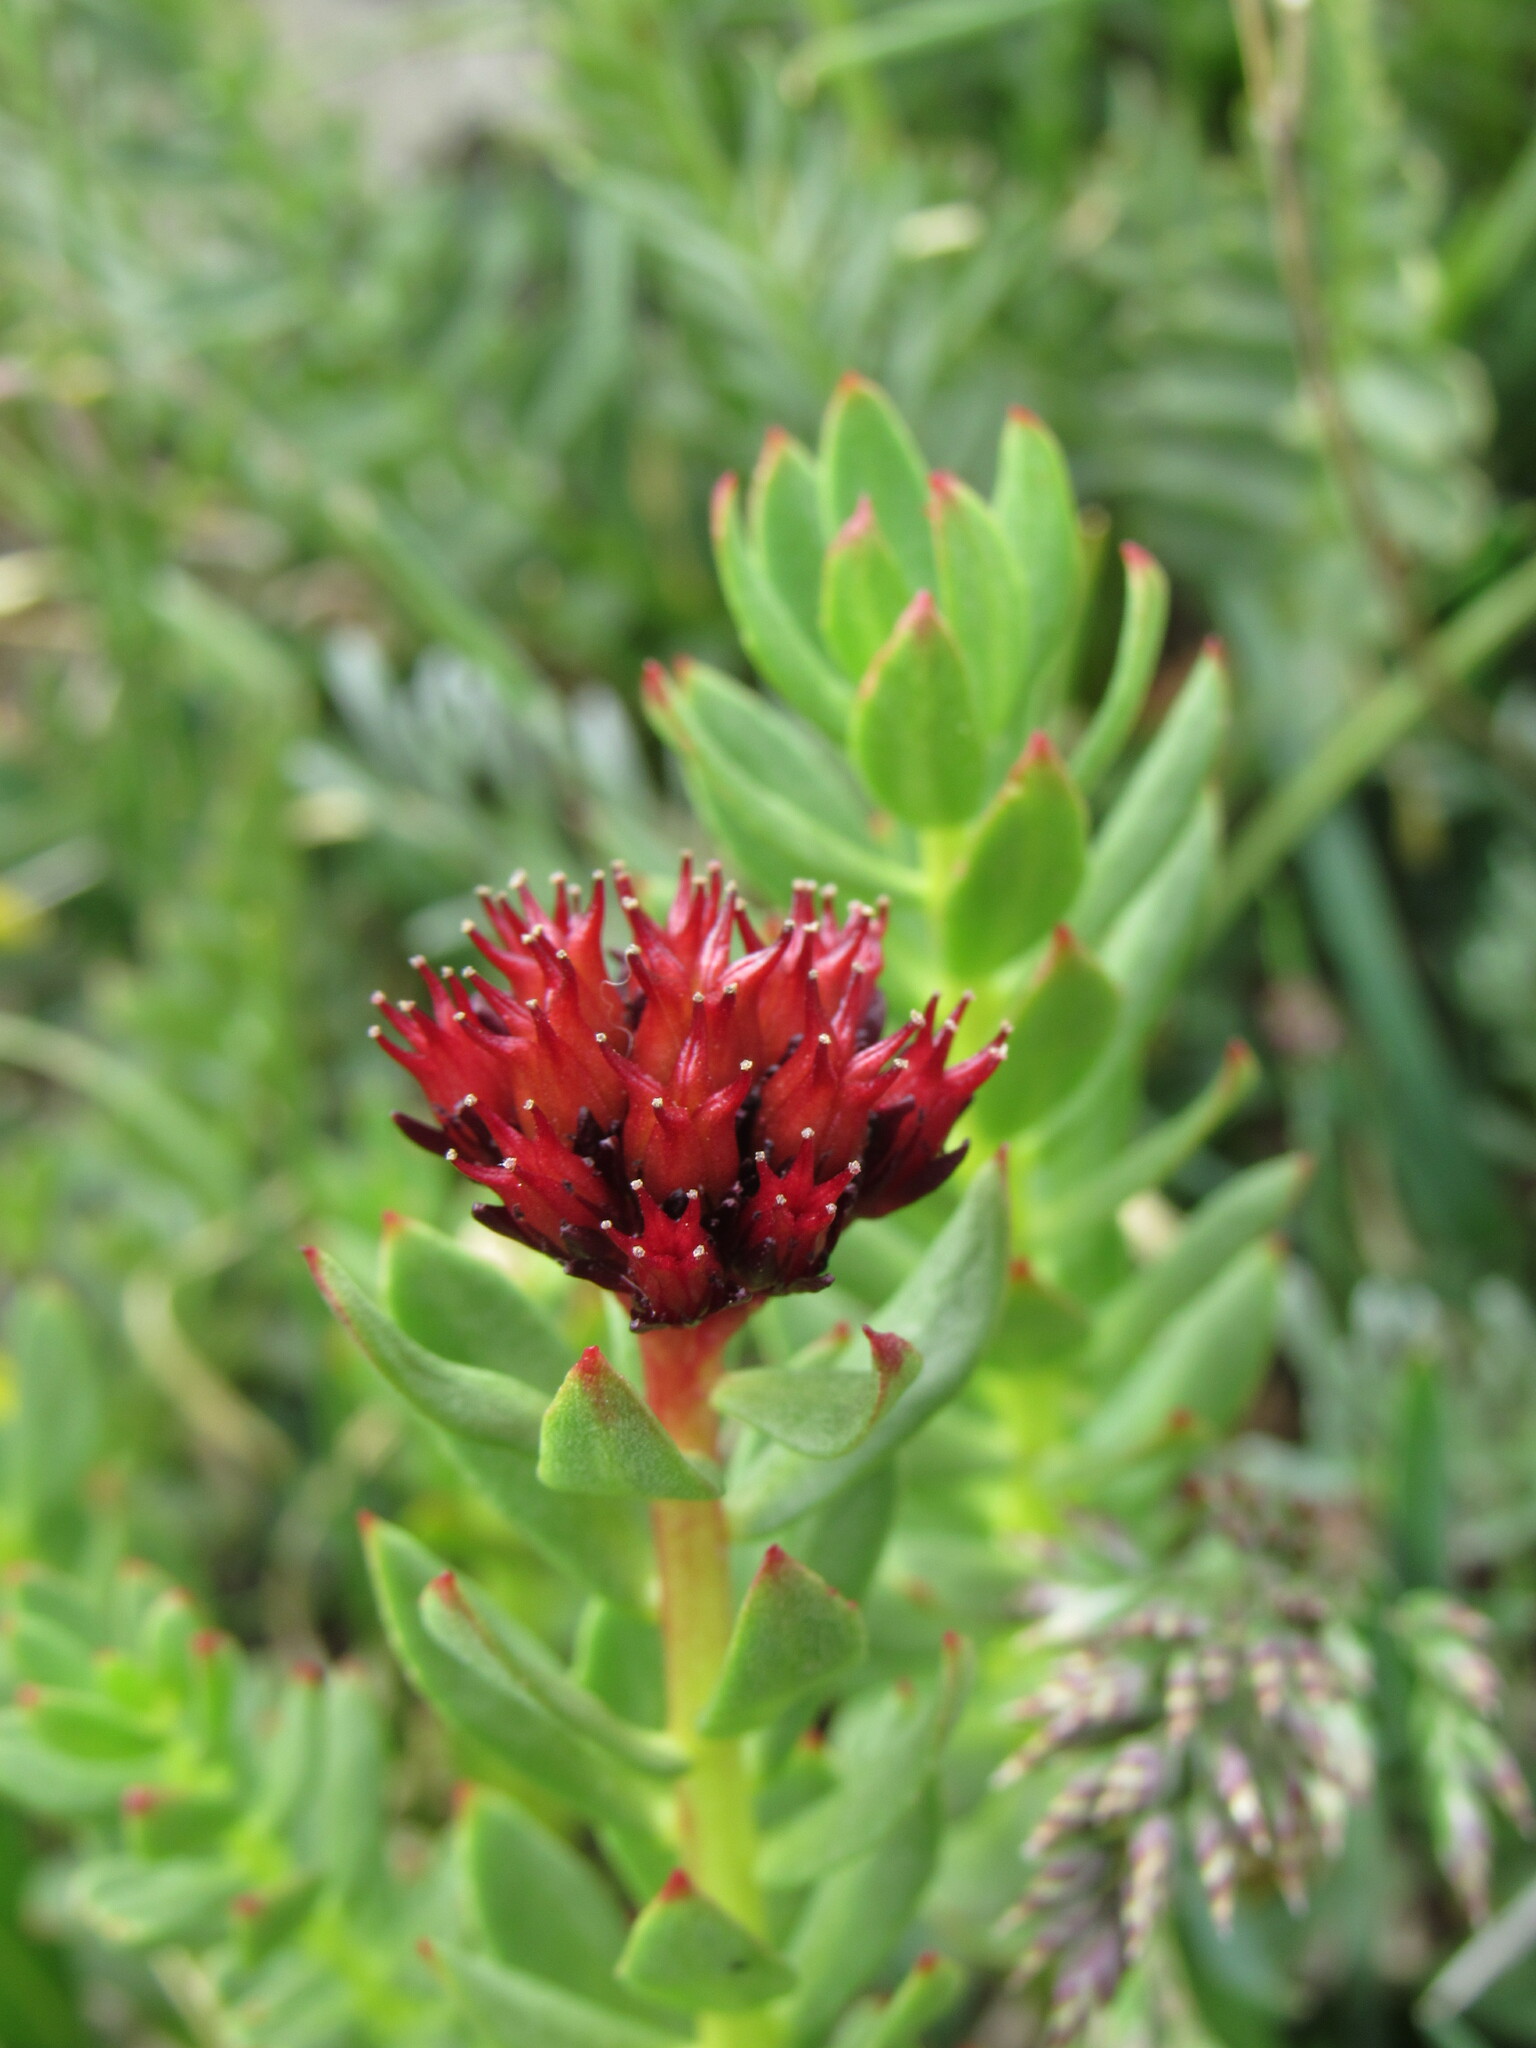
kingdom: Plantae
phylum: Tracheophyta
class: Magnoliopsida
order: Saxifragales
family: Crassulaceae
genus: Rhodiola
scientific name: Rhodiola integrifolia
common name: Western roseroot
